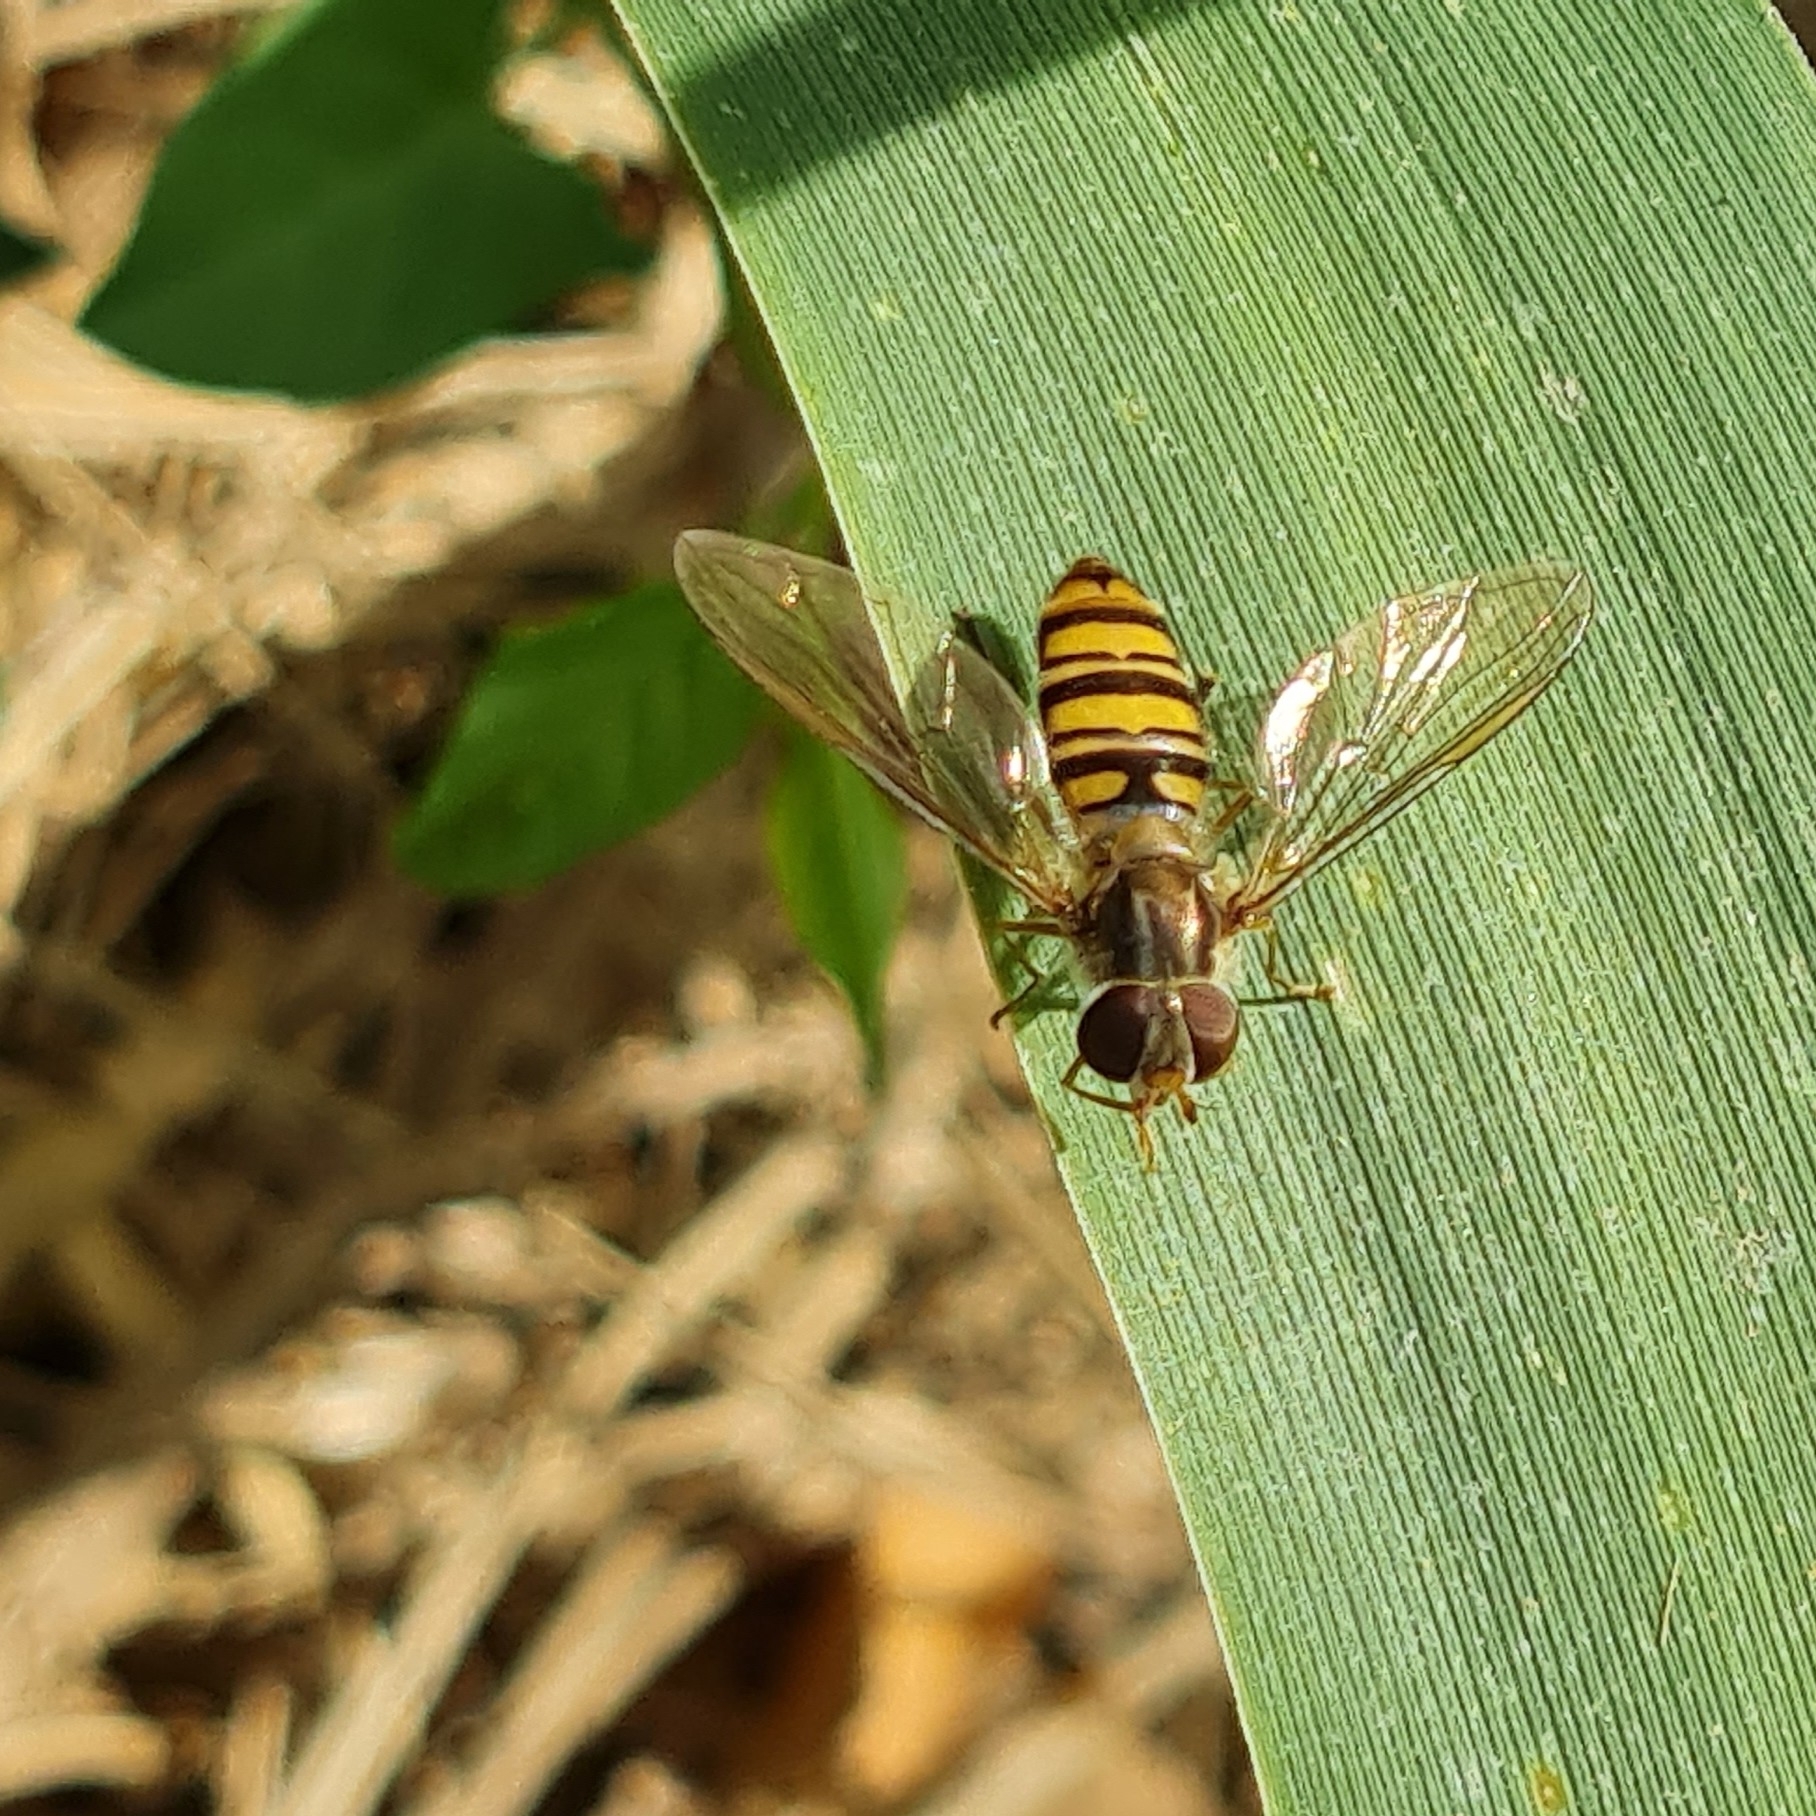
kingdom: Animalia
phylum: Arthropoda
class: Insecta
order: Diptera
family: Syrphidae
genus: Episyrphus
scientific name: Episyrphus balteatus
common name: Marmalade hoverfly
